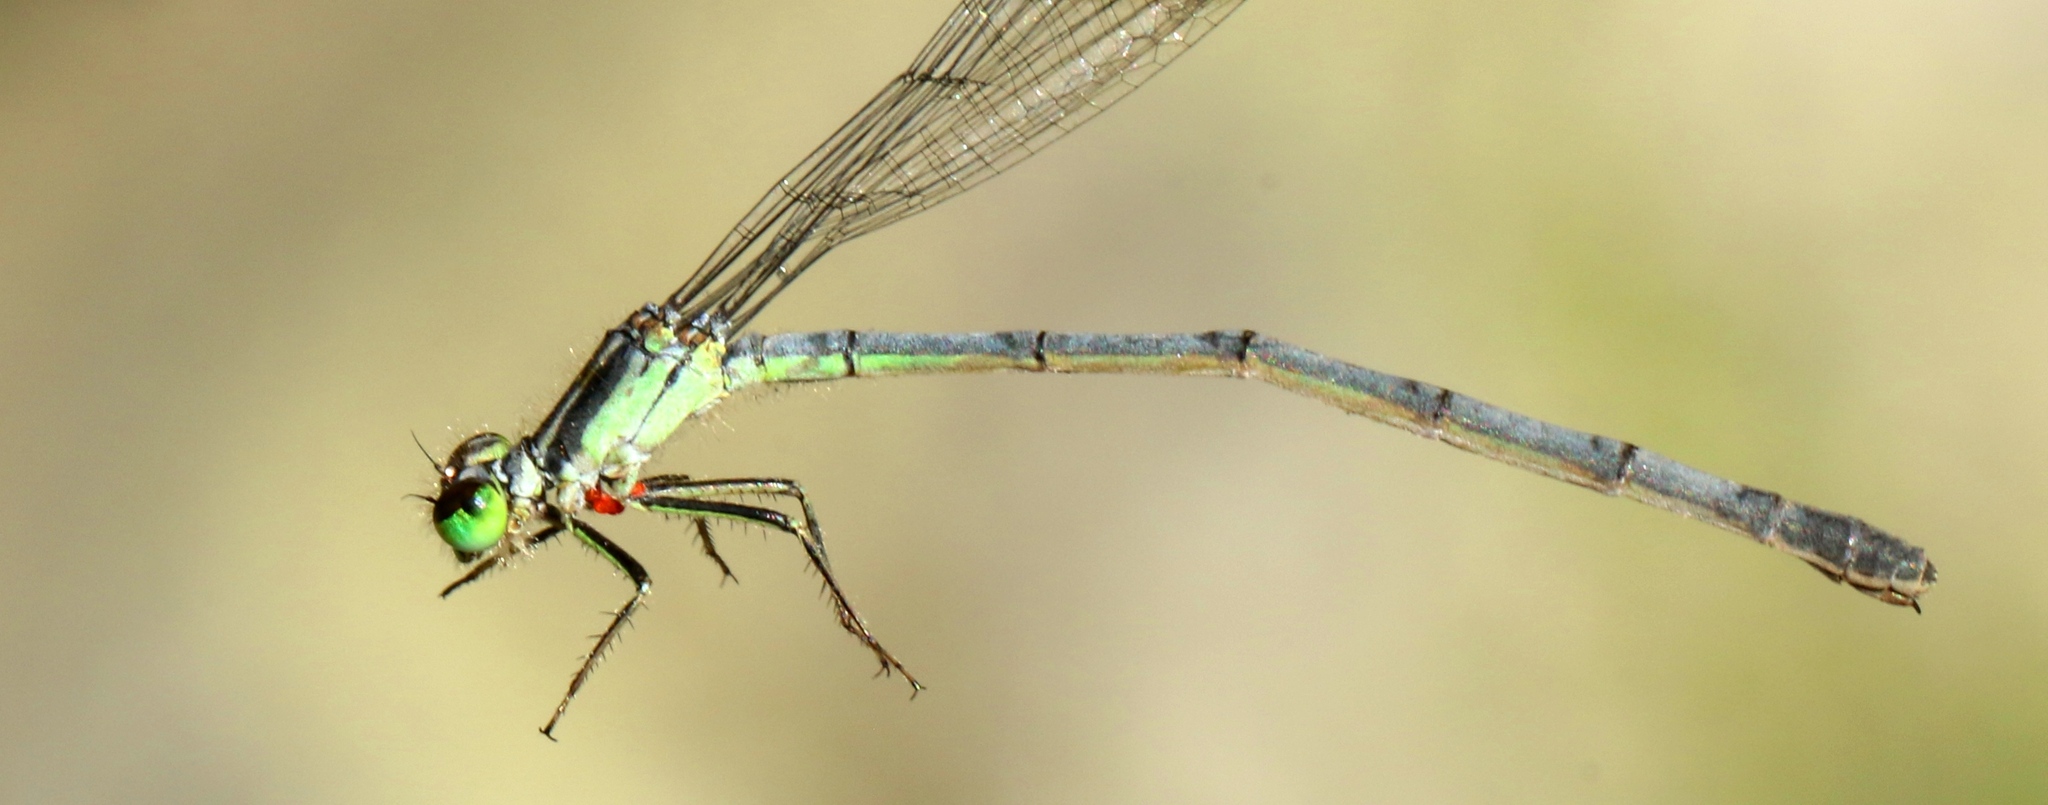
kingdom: Animalia
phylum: Arthropoda
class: Insecta
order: Odonata
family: Coenagrionidae
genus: Ischnura
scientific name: Ischnura verticalis
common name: Eastern forktail
